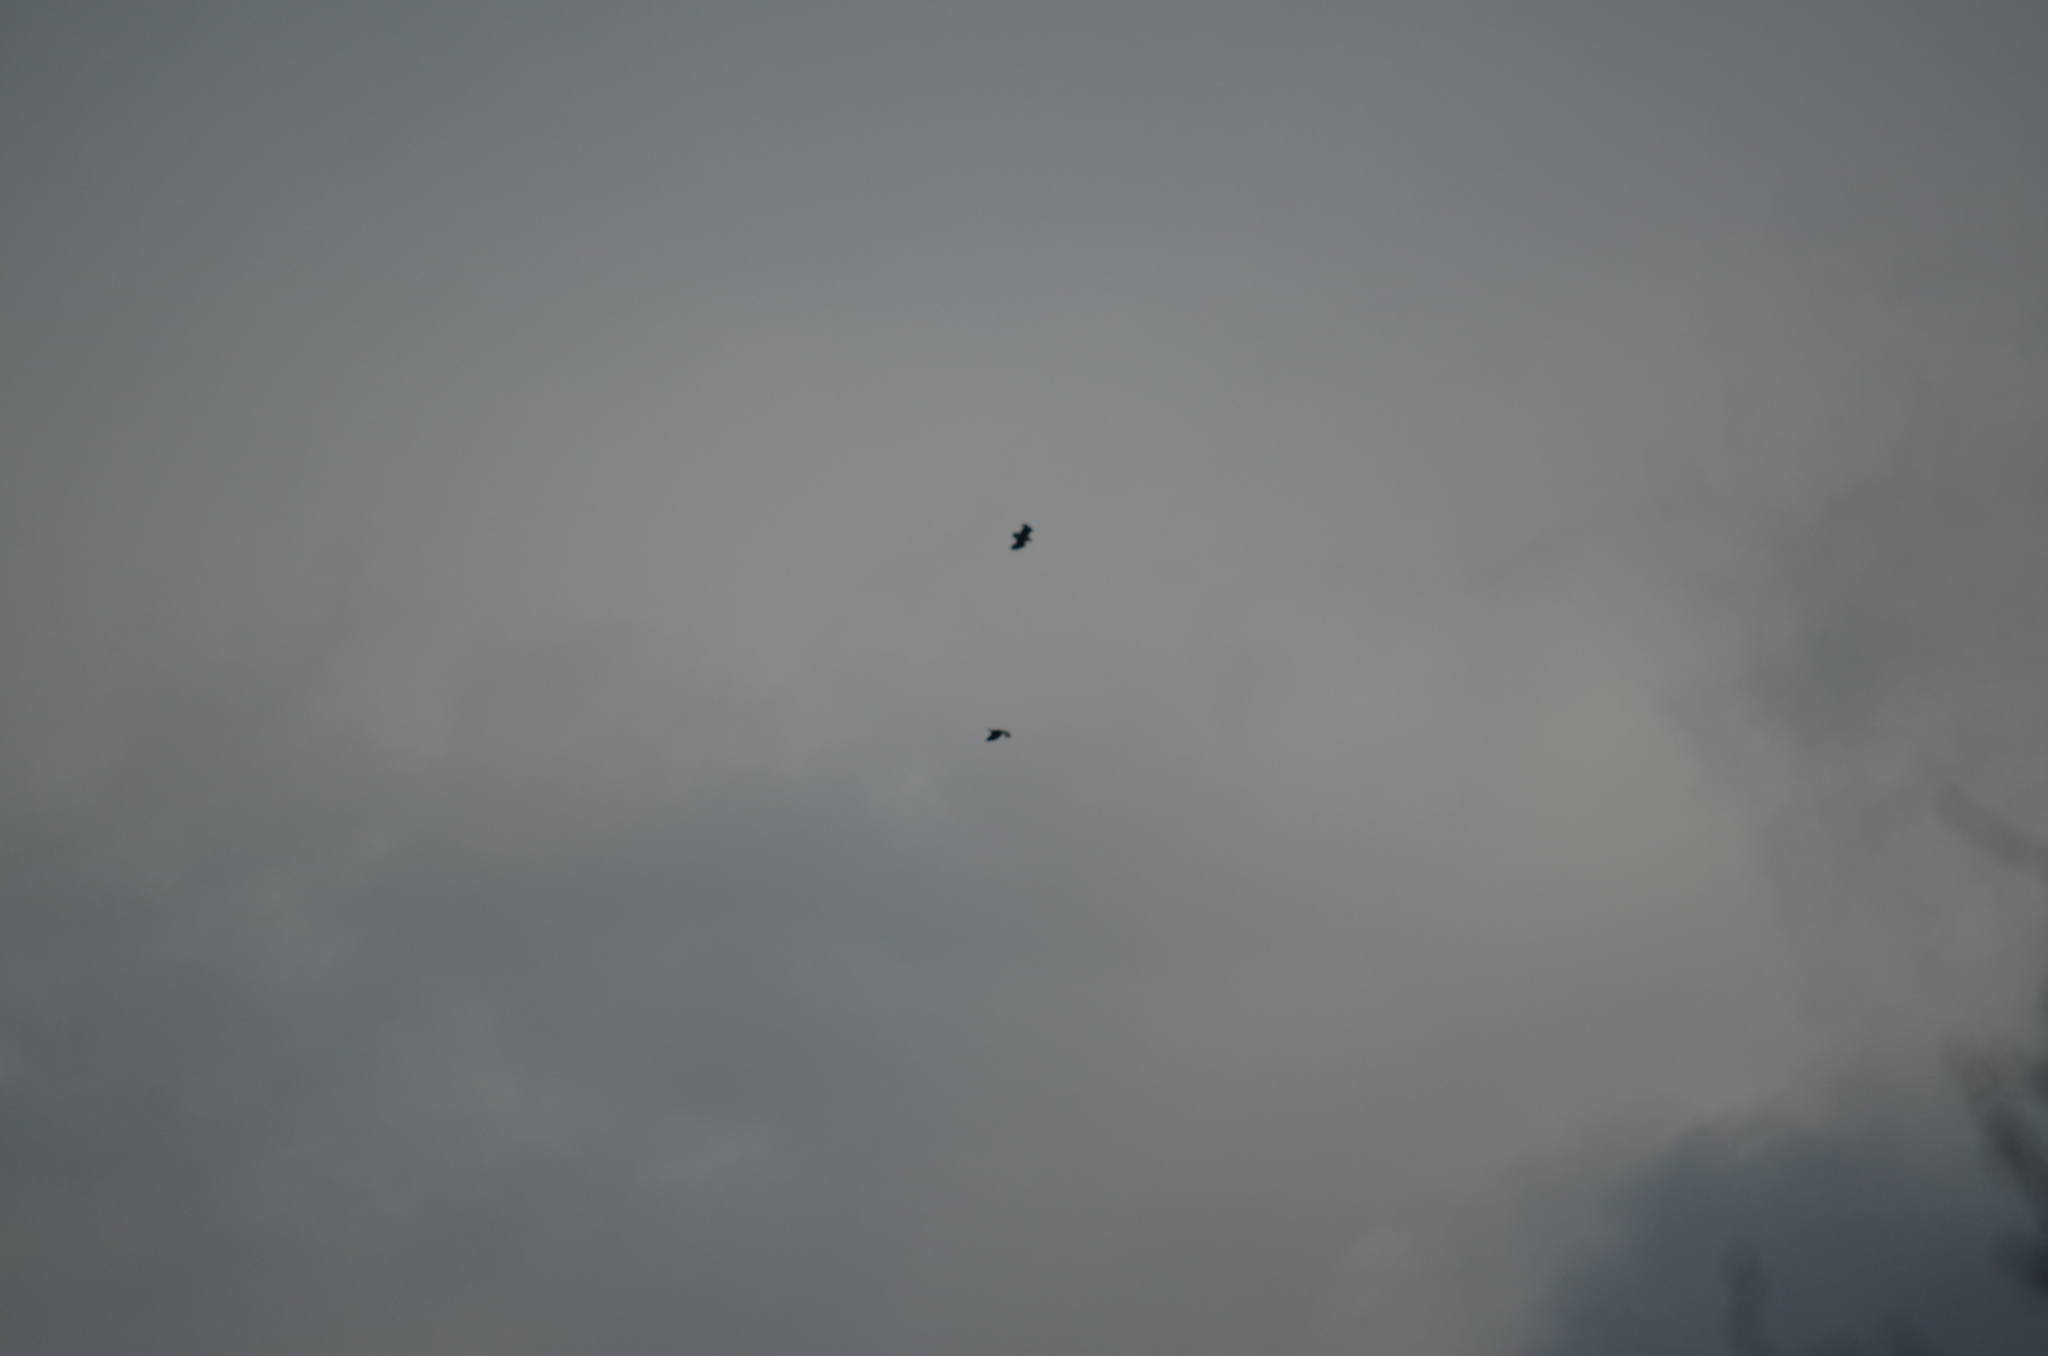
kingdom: Animalia
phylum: Chordata
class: Aves
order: Passeriformes
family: Corvidae
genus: Corvus
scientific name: Corvus brachyrhynchos
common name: American crow
